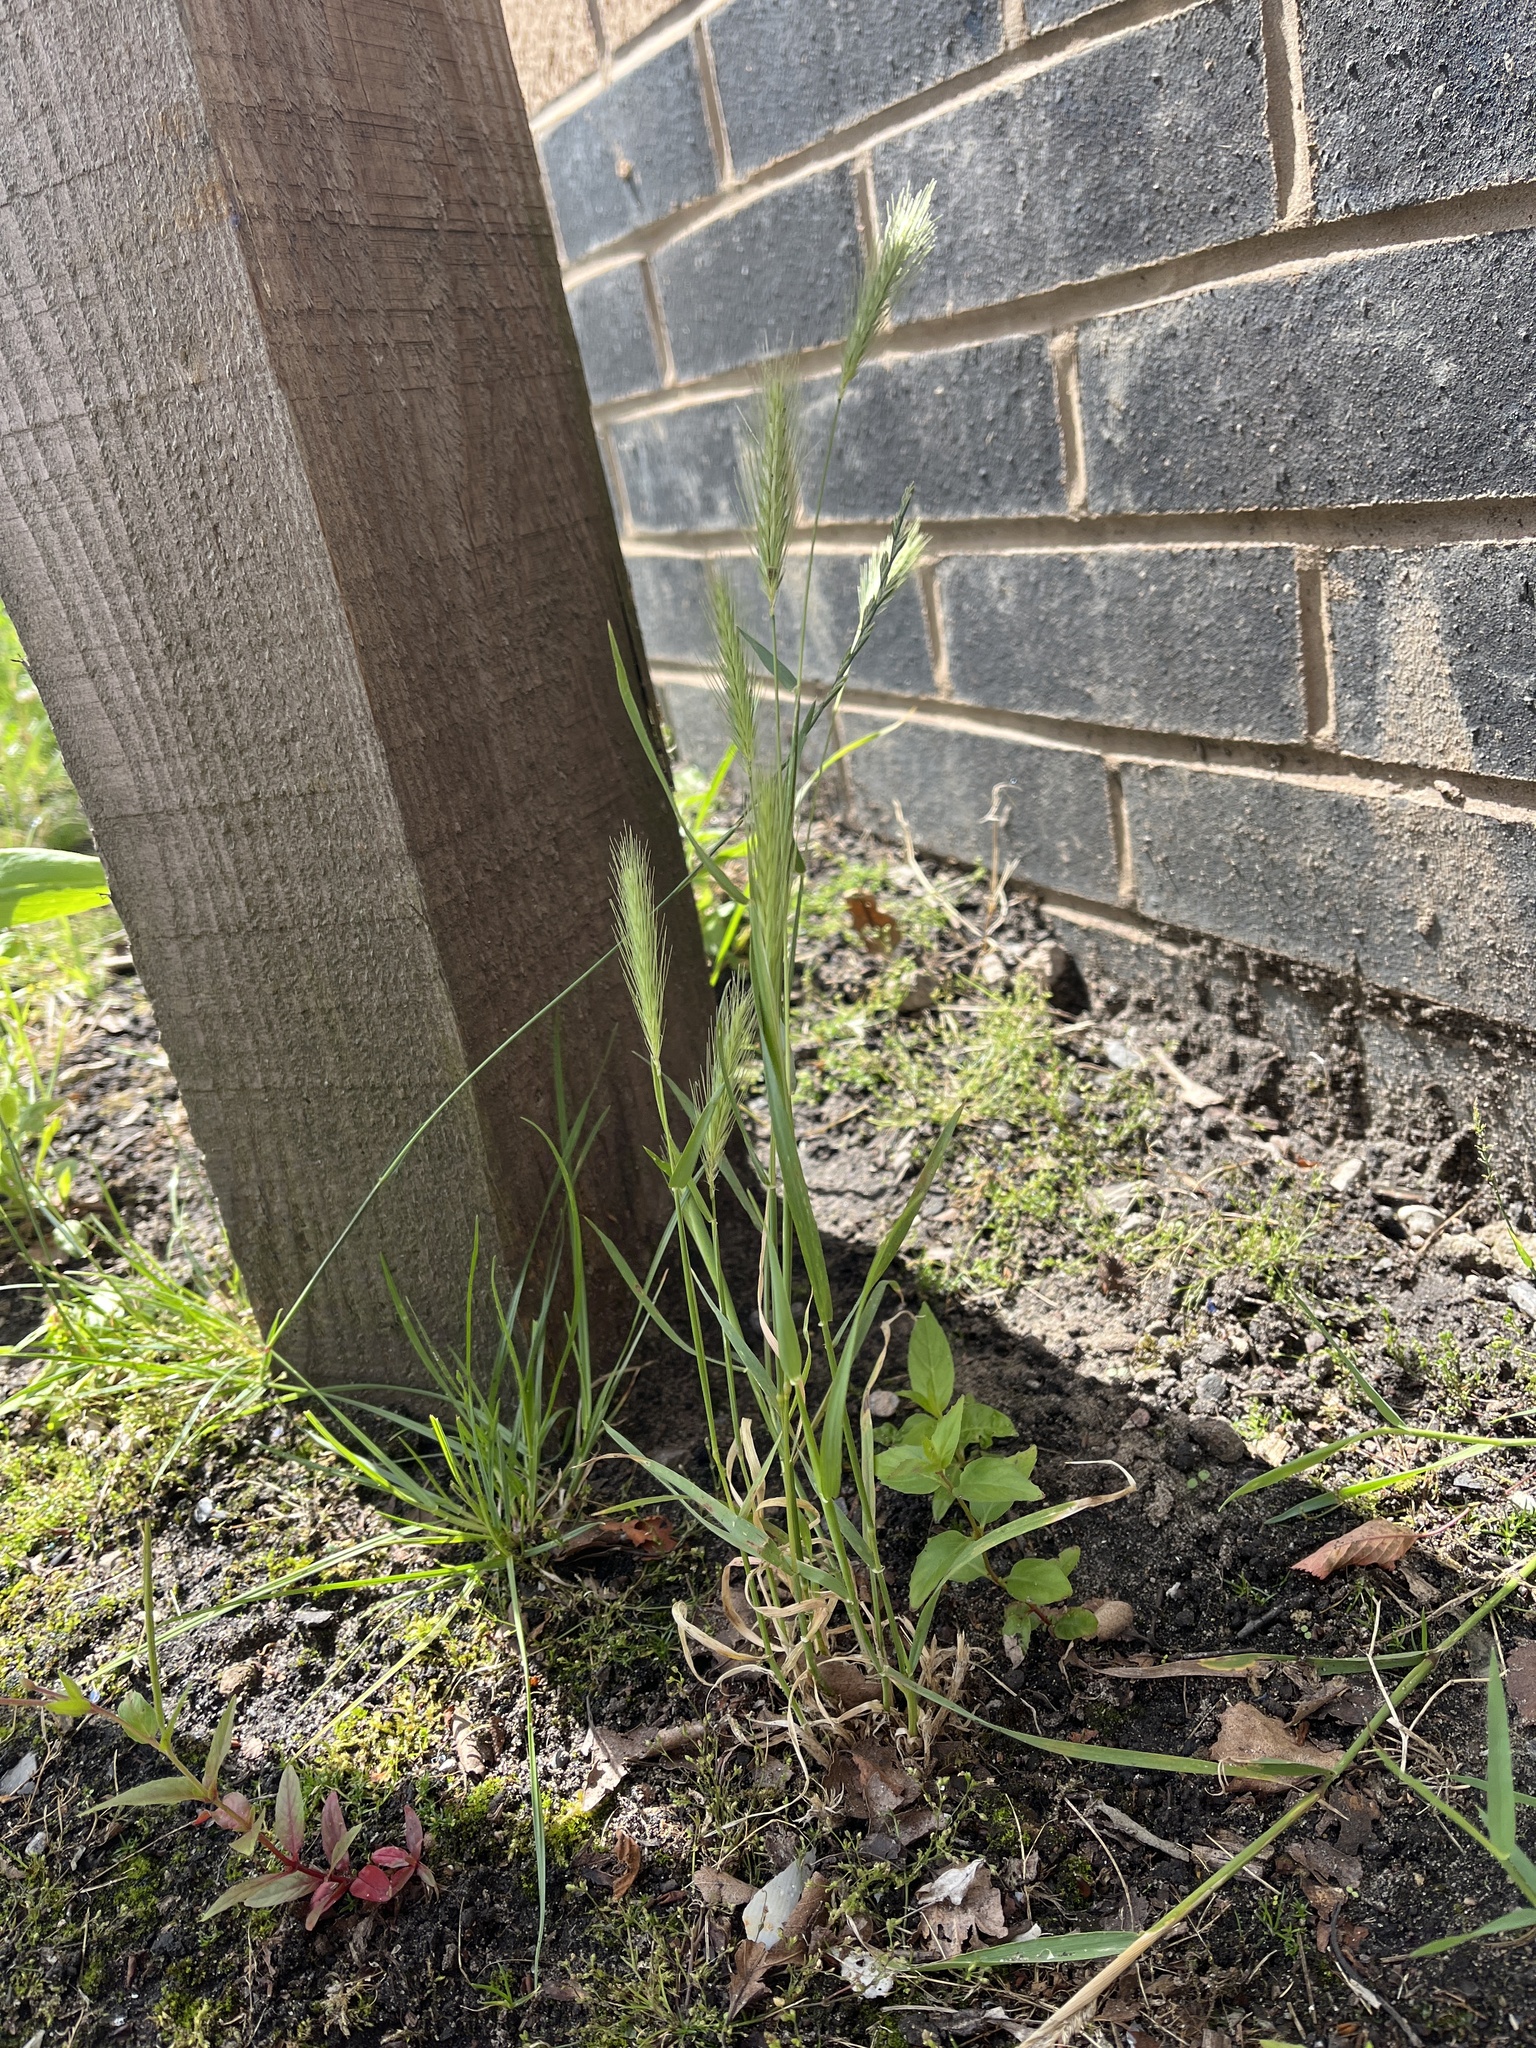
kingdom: Plantae
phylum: Tracheophyta
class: Liliopsida
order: Poales
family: Poaceae
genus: Hordeum
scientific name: Hordeum murinum
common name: Wall barley
